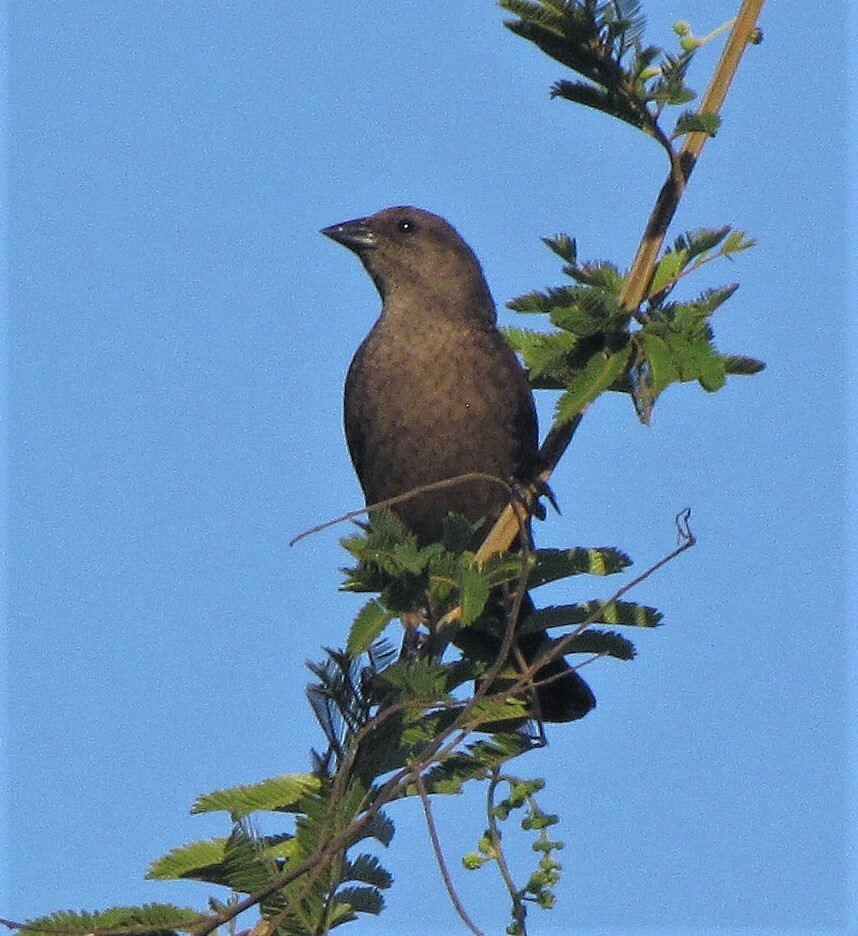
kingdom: Animalia
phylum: Chordata
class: Aves
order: Passeriformes
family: Icteridae
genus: Molothrus
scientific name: Molothrus bonariensis
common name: Shiny cowbird
